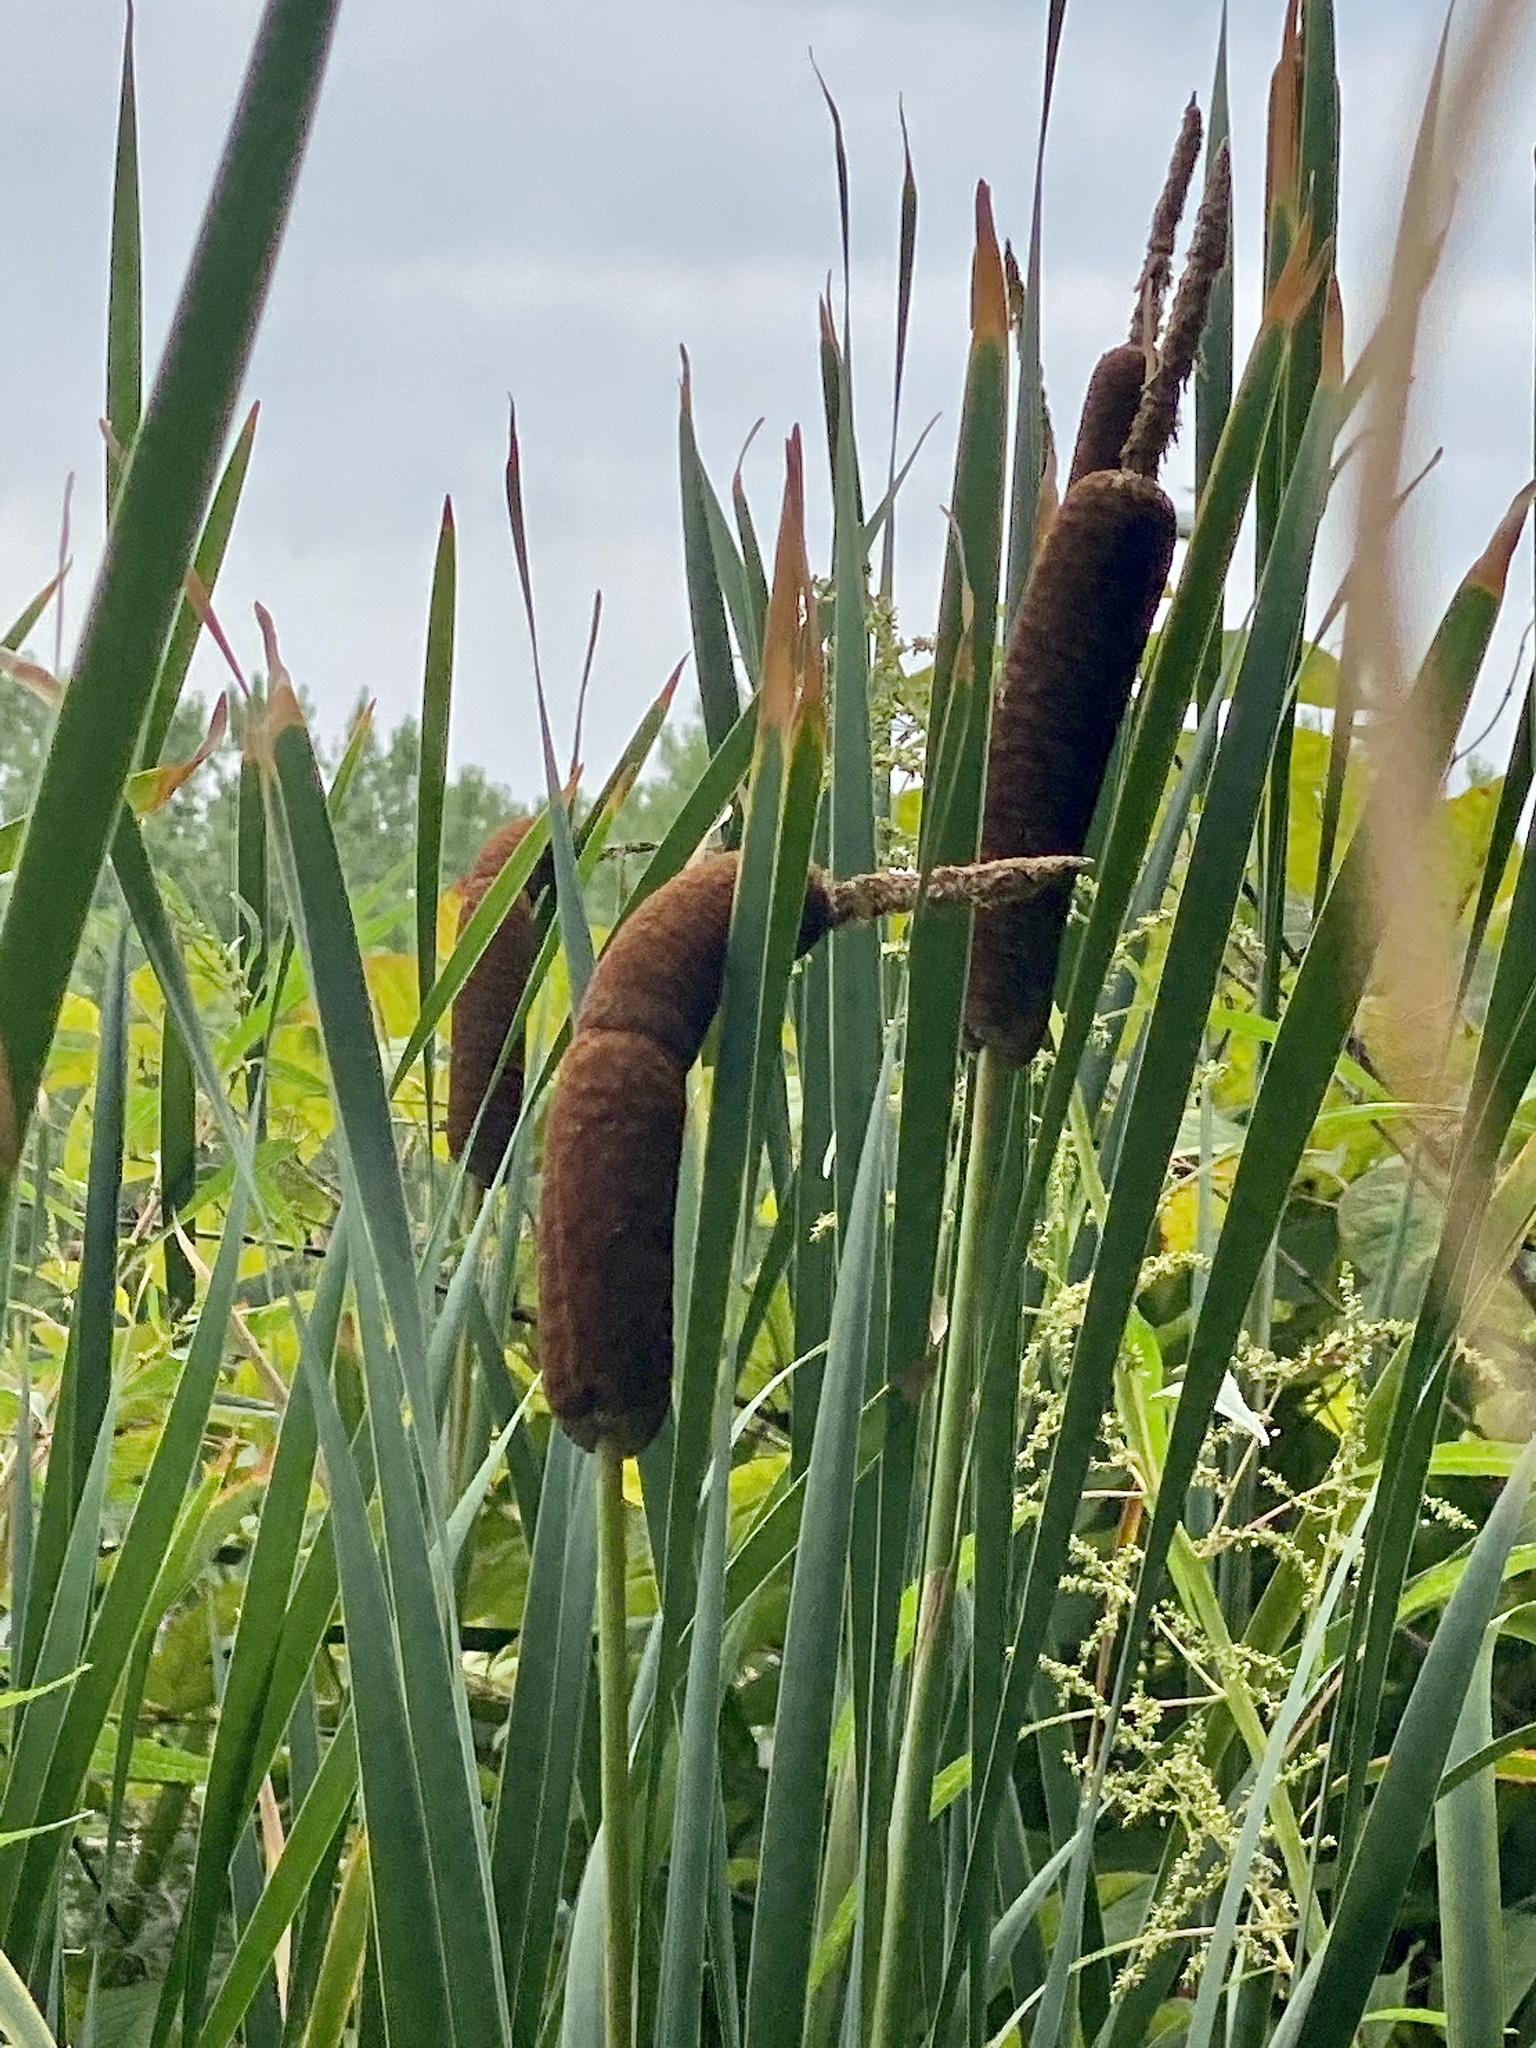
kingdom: Plantae
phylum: Tracheophyta
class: Liliopsida
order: Poales
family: Typhaceae
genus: Typha
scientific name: Typha latifolia
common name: Broadleaf cattail
